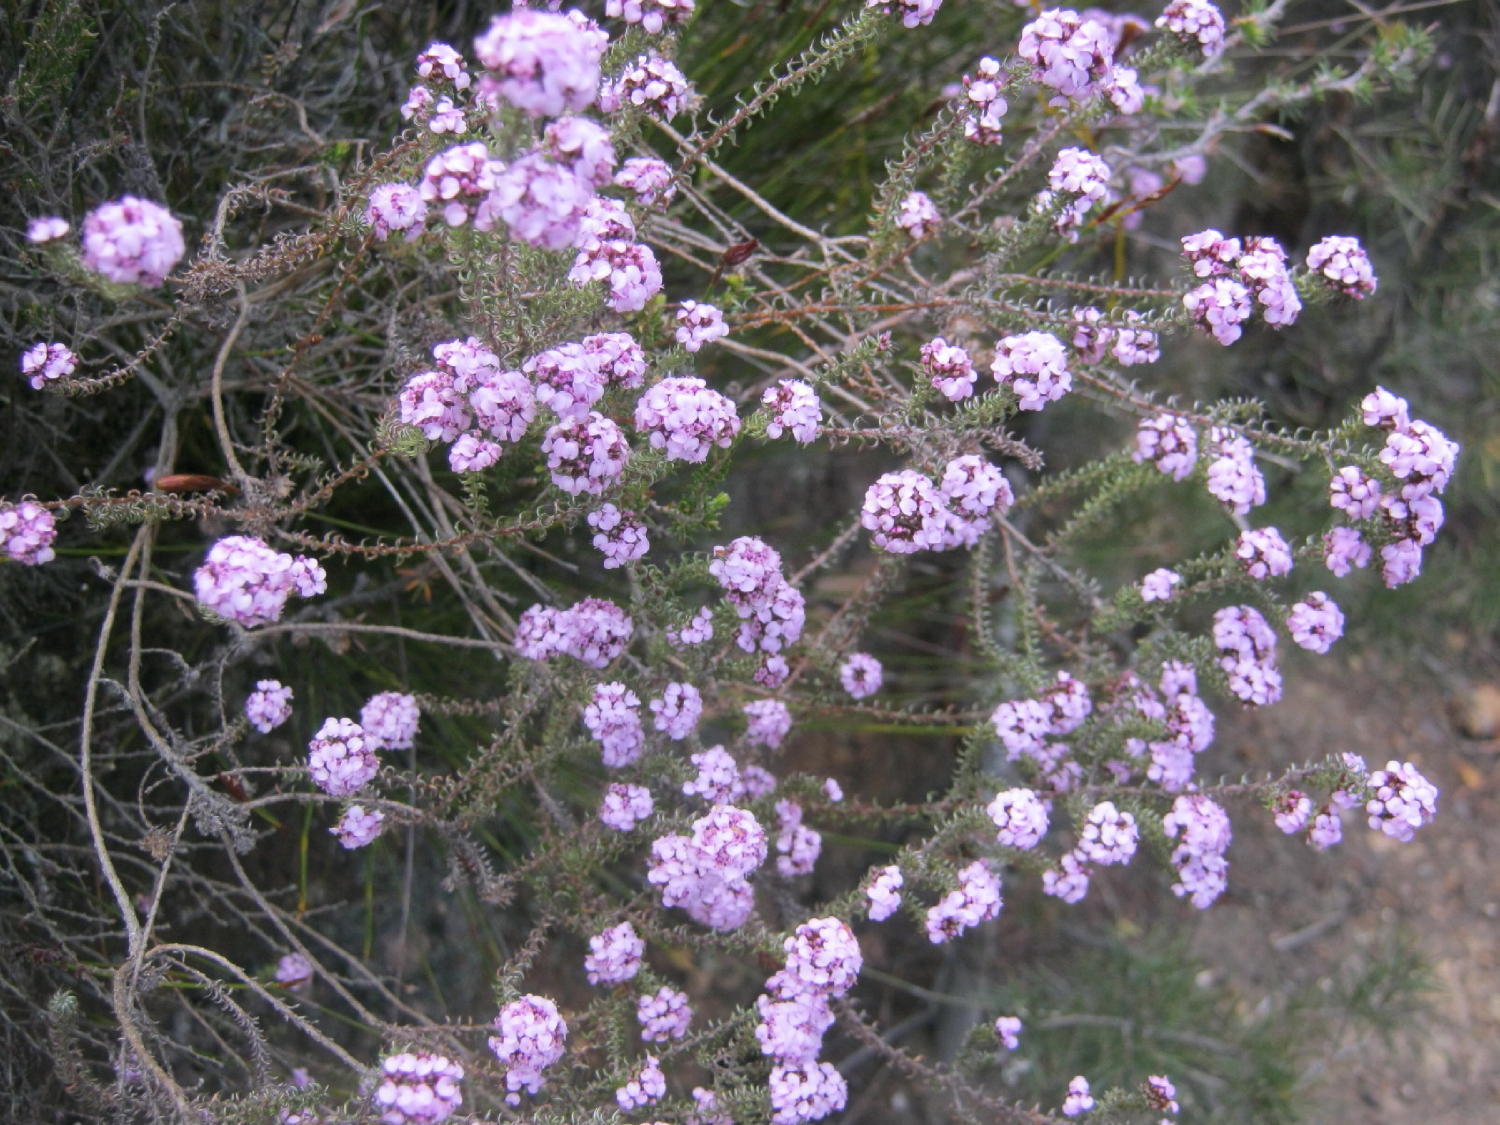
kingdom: Plantae
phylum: Tracheophyta
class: Magnoliopsida
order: Asterales
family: Asteraceae
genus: Disparago
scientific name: Disparago tortilis
